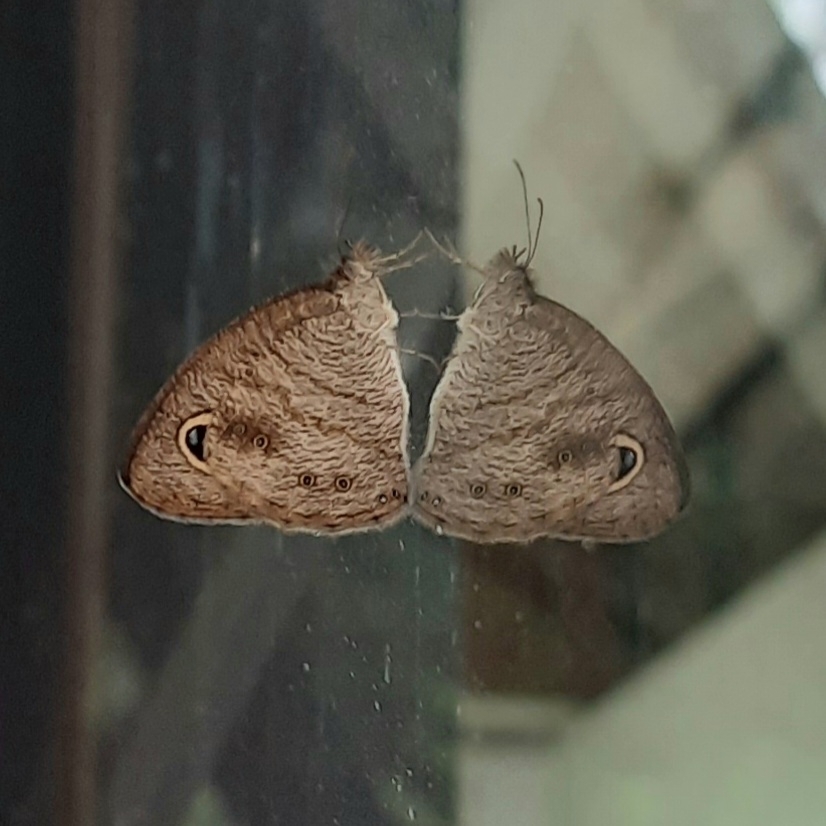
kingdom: Animalia
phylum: Arthropoda
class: Insecta
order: Lepidoptera
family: Nymphalidae
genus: Ypthima
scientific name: Ypthima baldus
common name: Common five-ring
